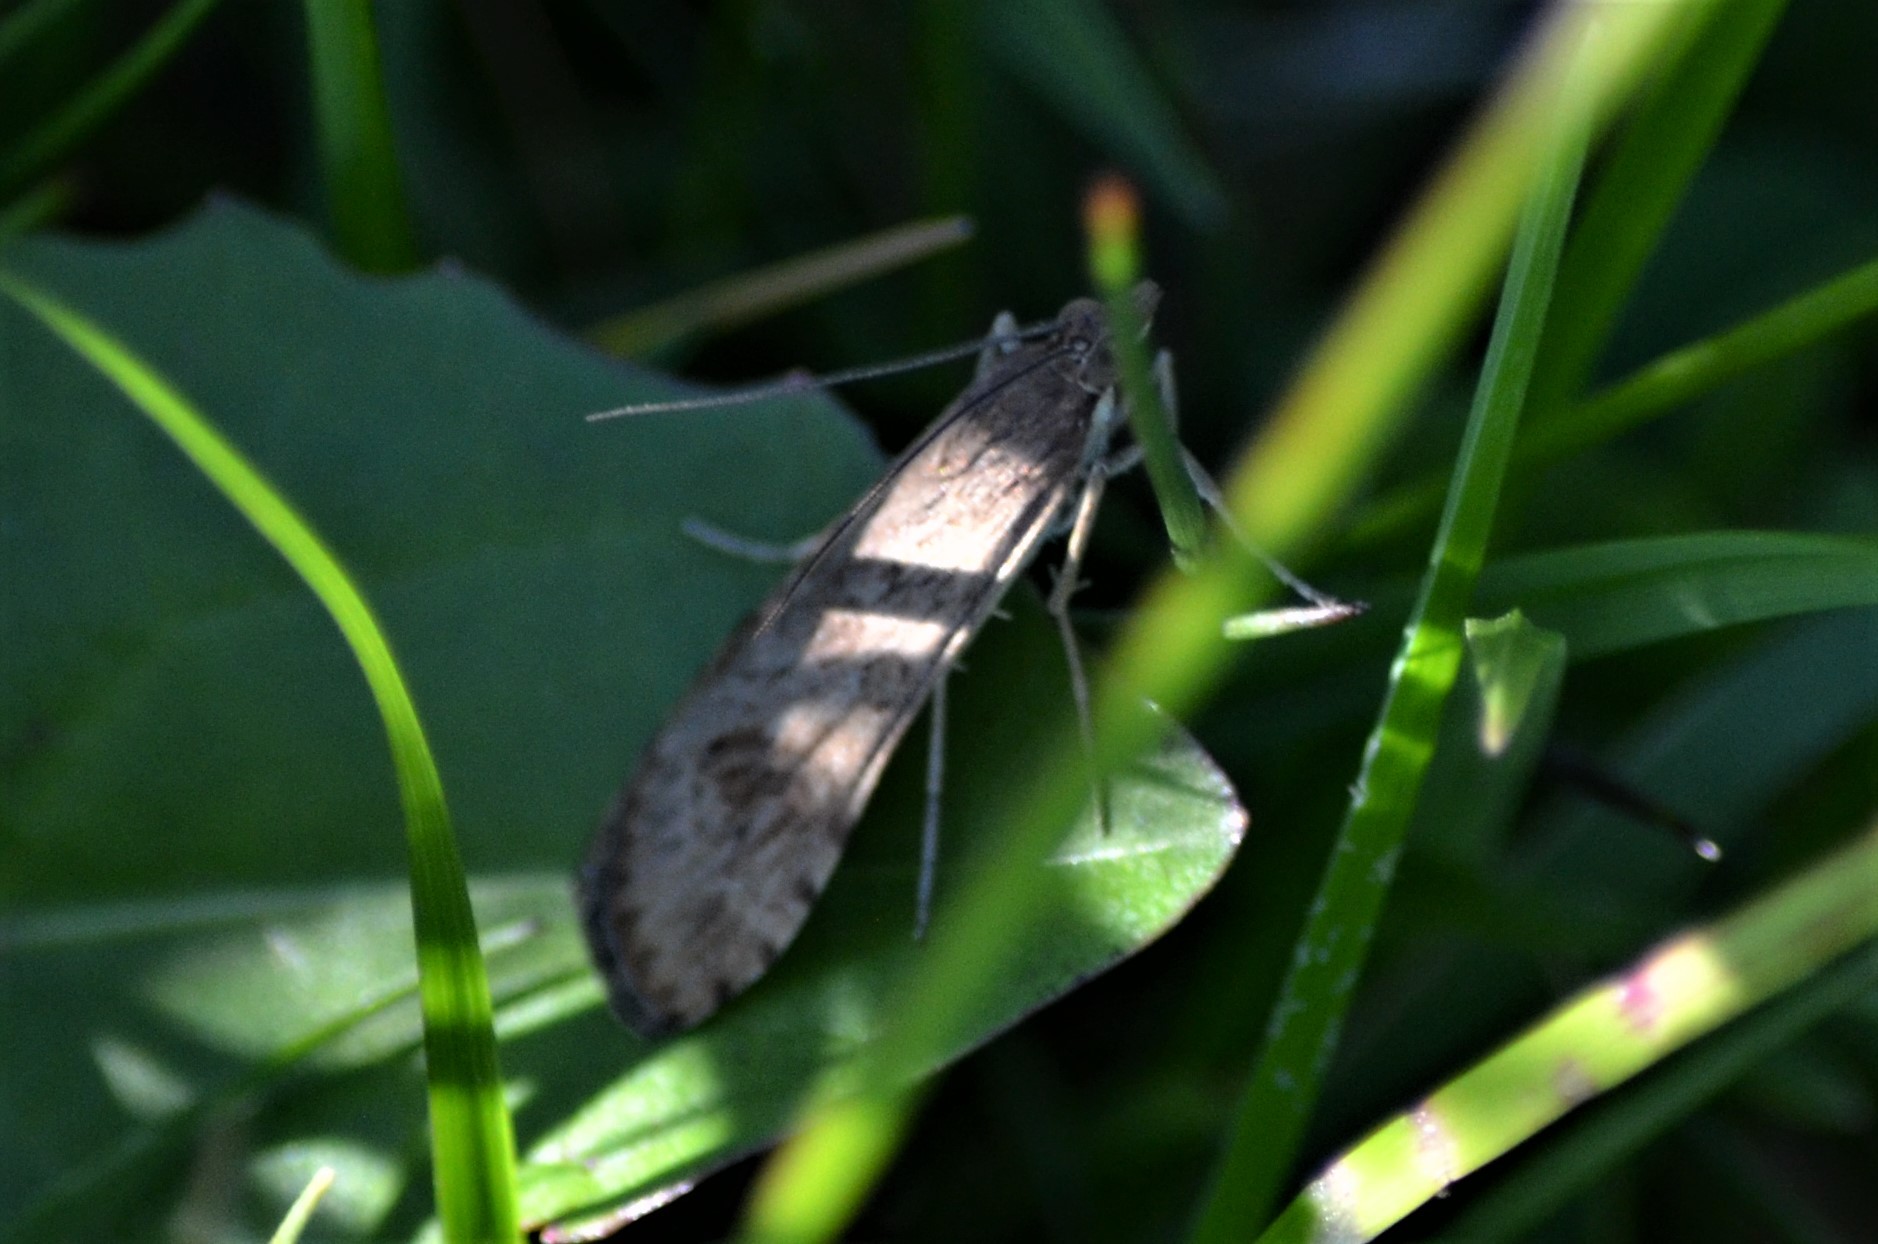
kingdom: Animalia
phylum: Arthropoda
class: Insecta
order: Lepidoptera
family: Crambidae
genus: Nomophila
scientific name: Nomophila noctuella
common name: Rush veneer
